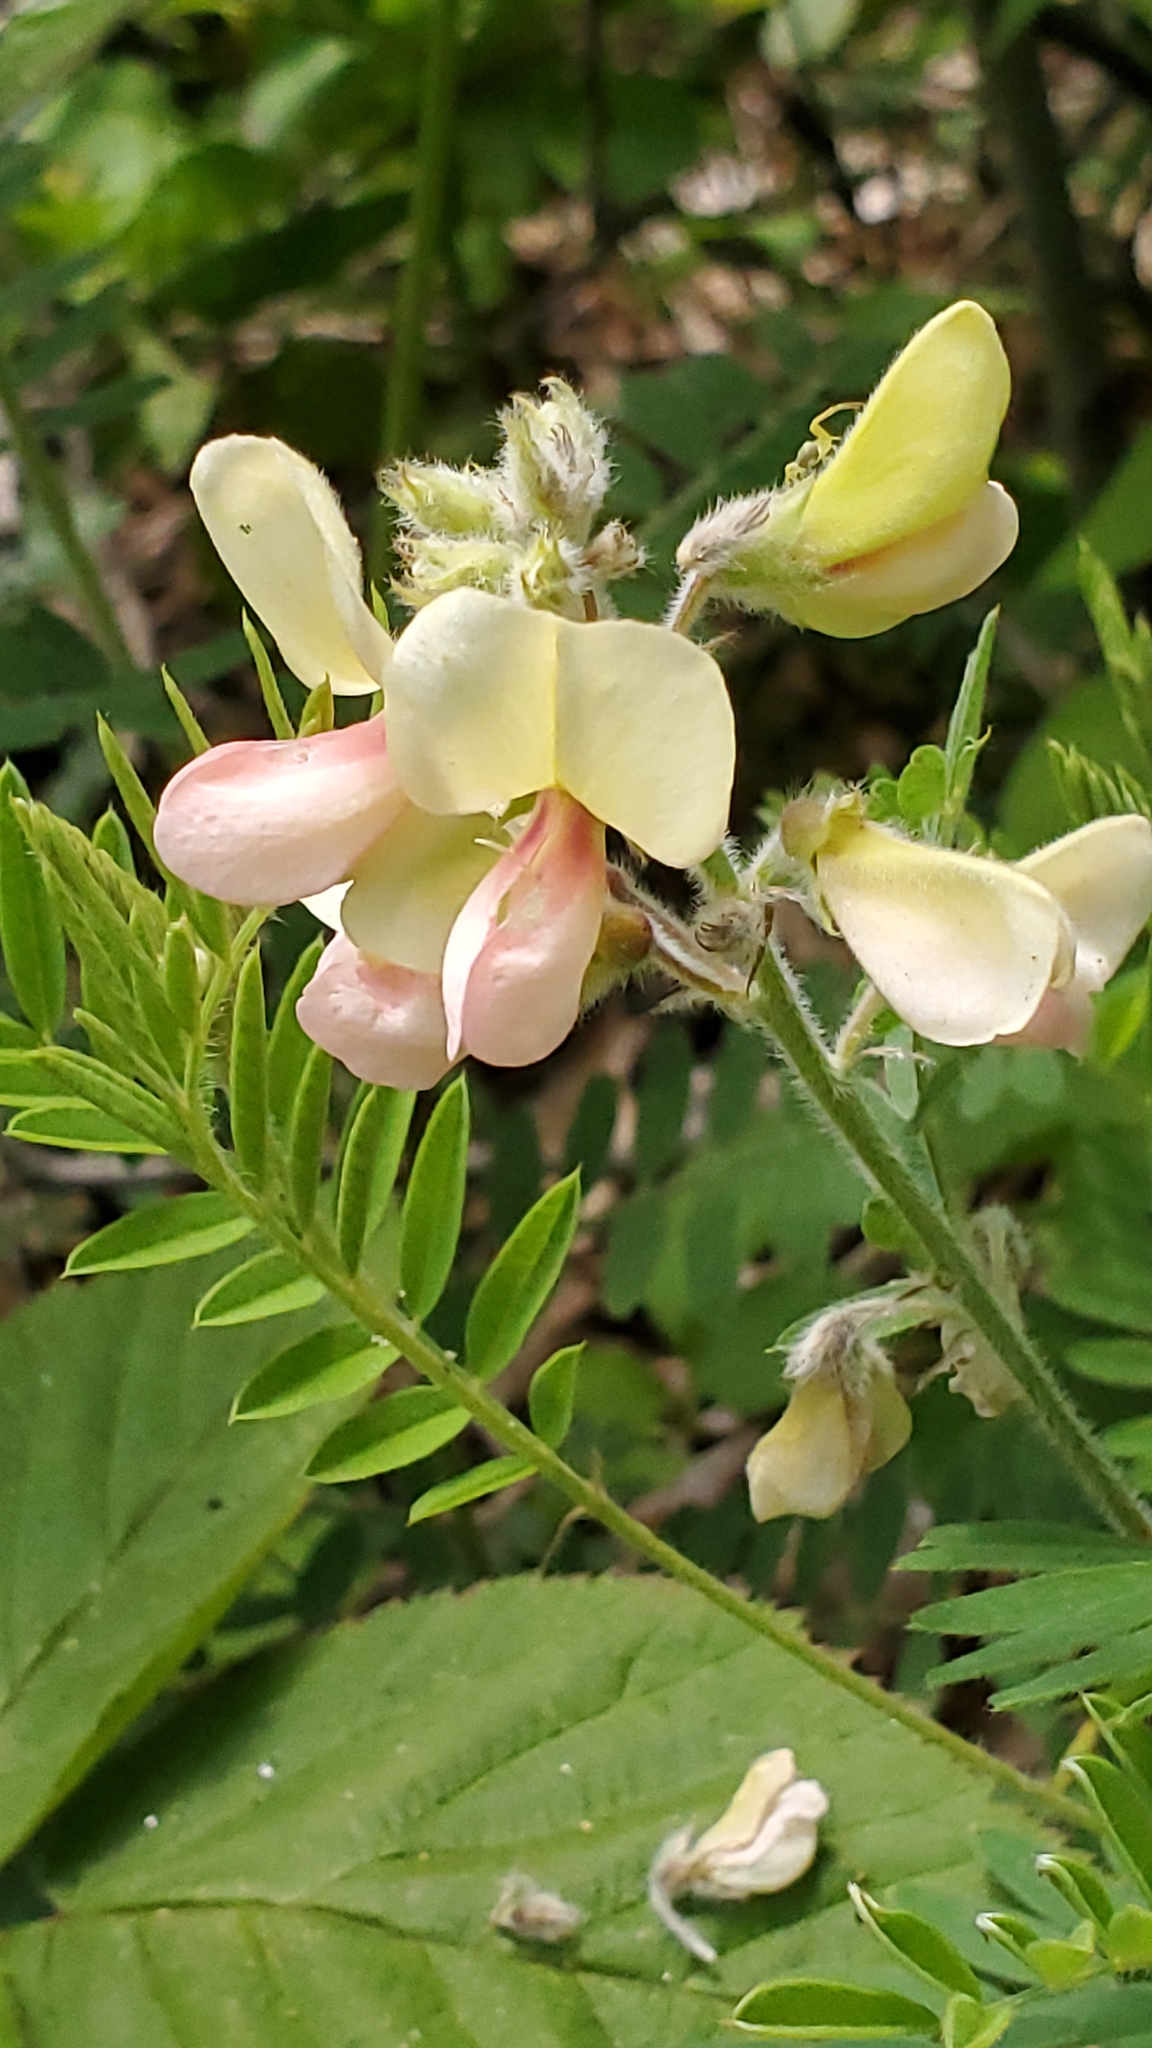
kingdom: Plantae
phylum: Tracheophyta
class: Magnoliopsida
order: Fabales
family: Fabaceae
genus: Tephrosia
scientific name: Tephrosia virginiana
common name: Rabbit-pea
